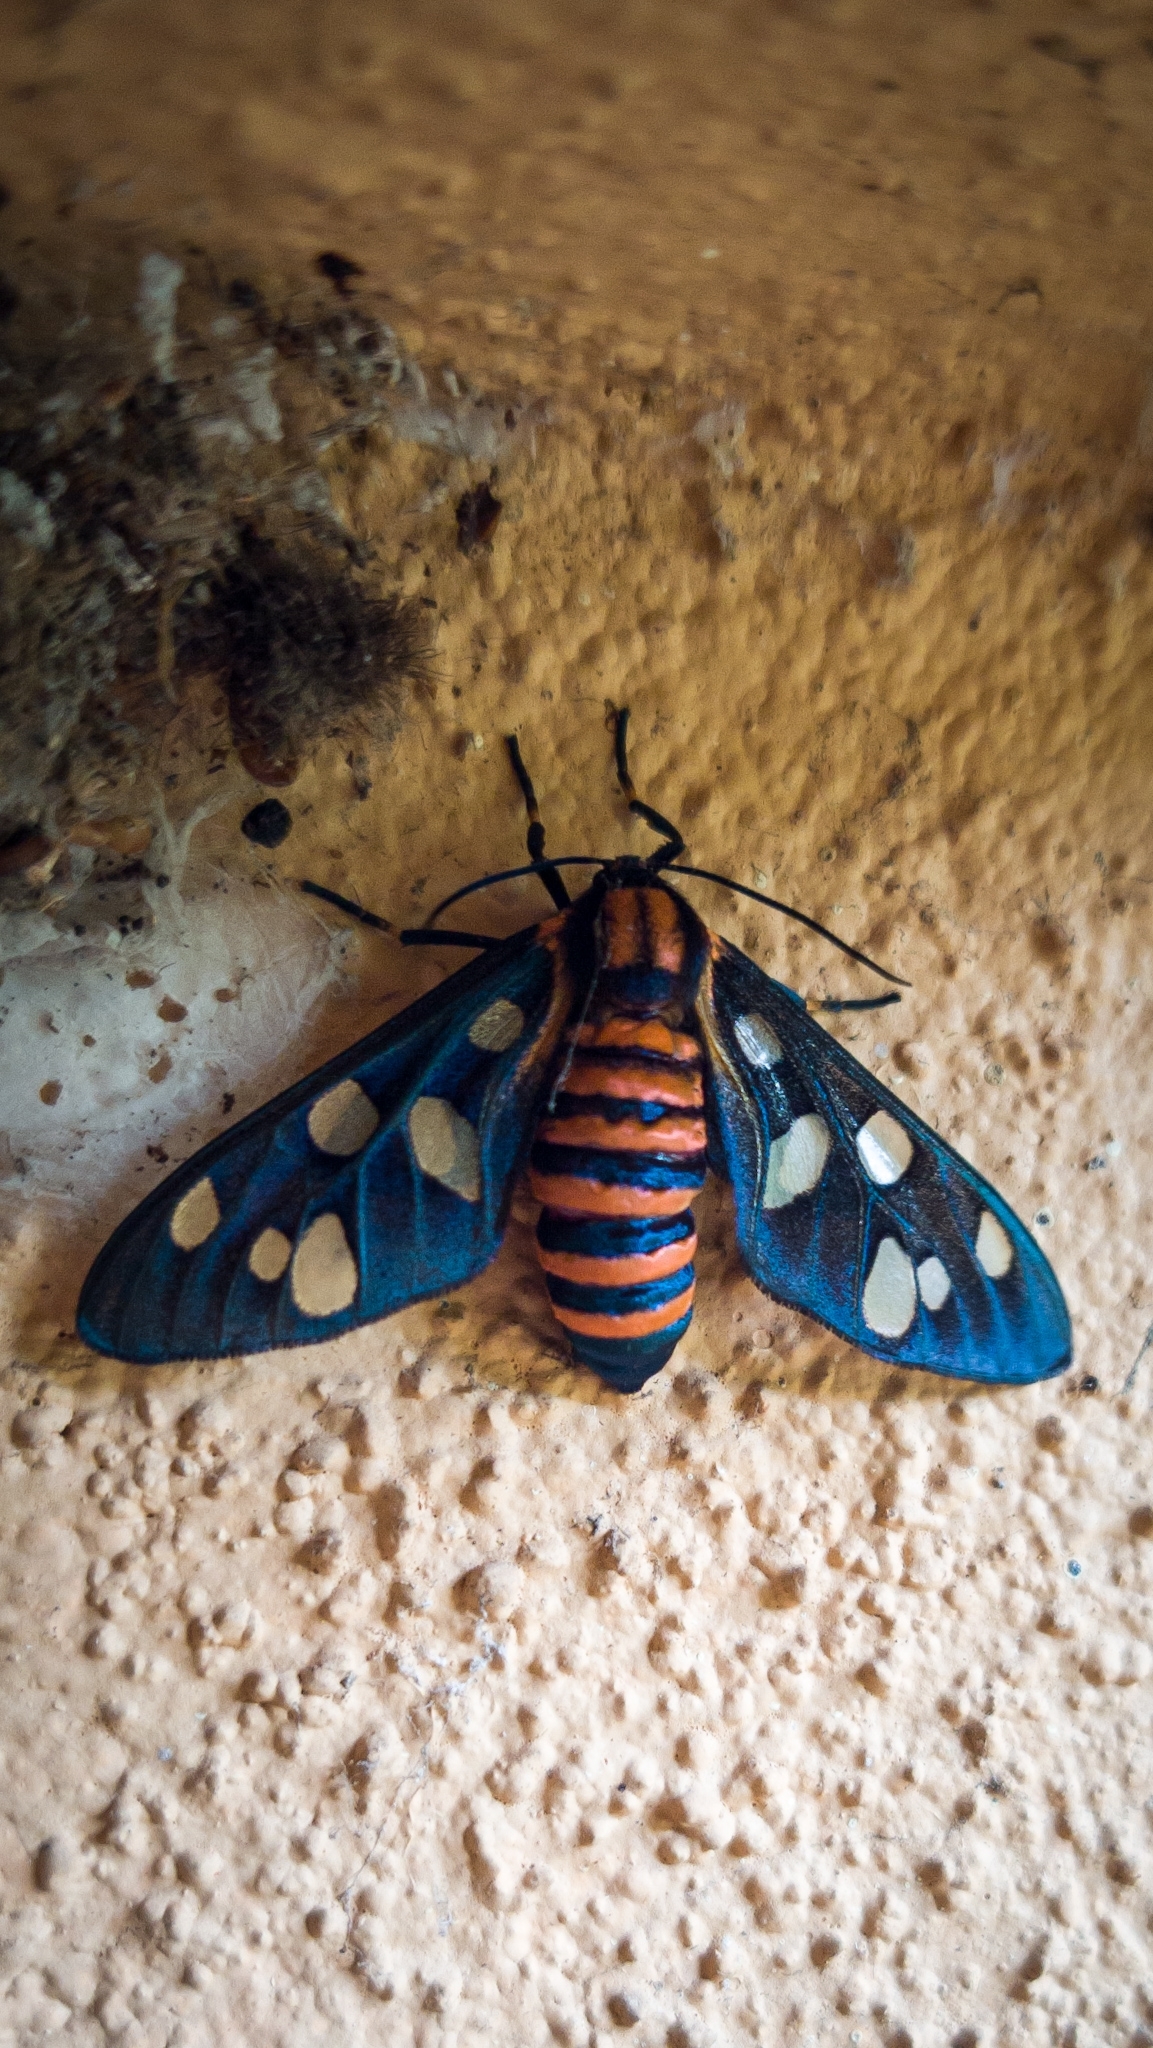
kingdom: Animalia
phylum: Arthropoda
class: Insecta
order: Lepidoptera
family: Erebidae
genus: Amata
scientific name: Amata passalis
